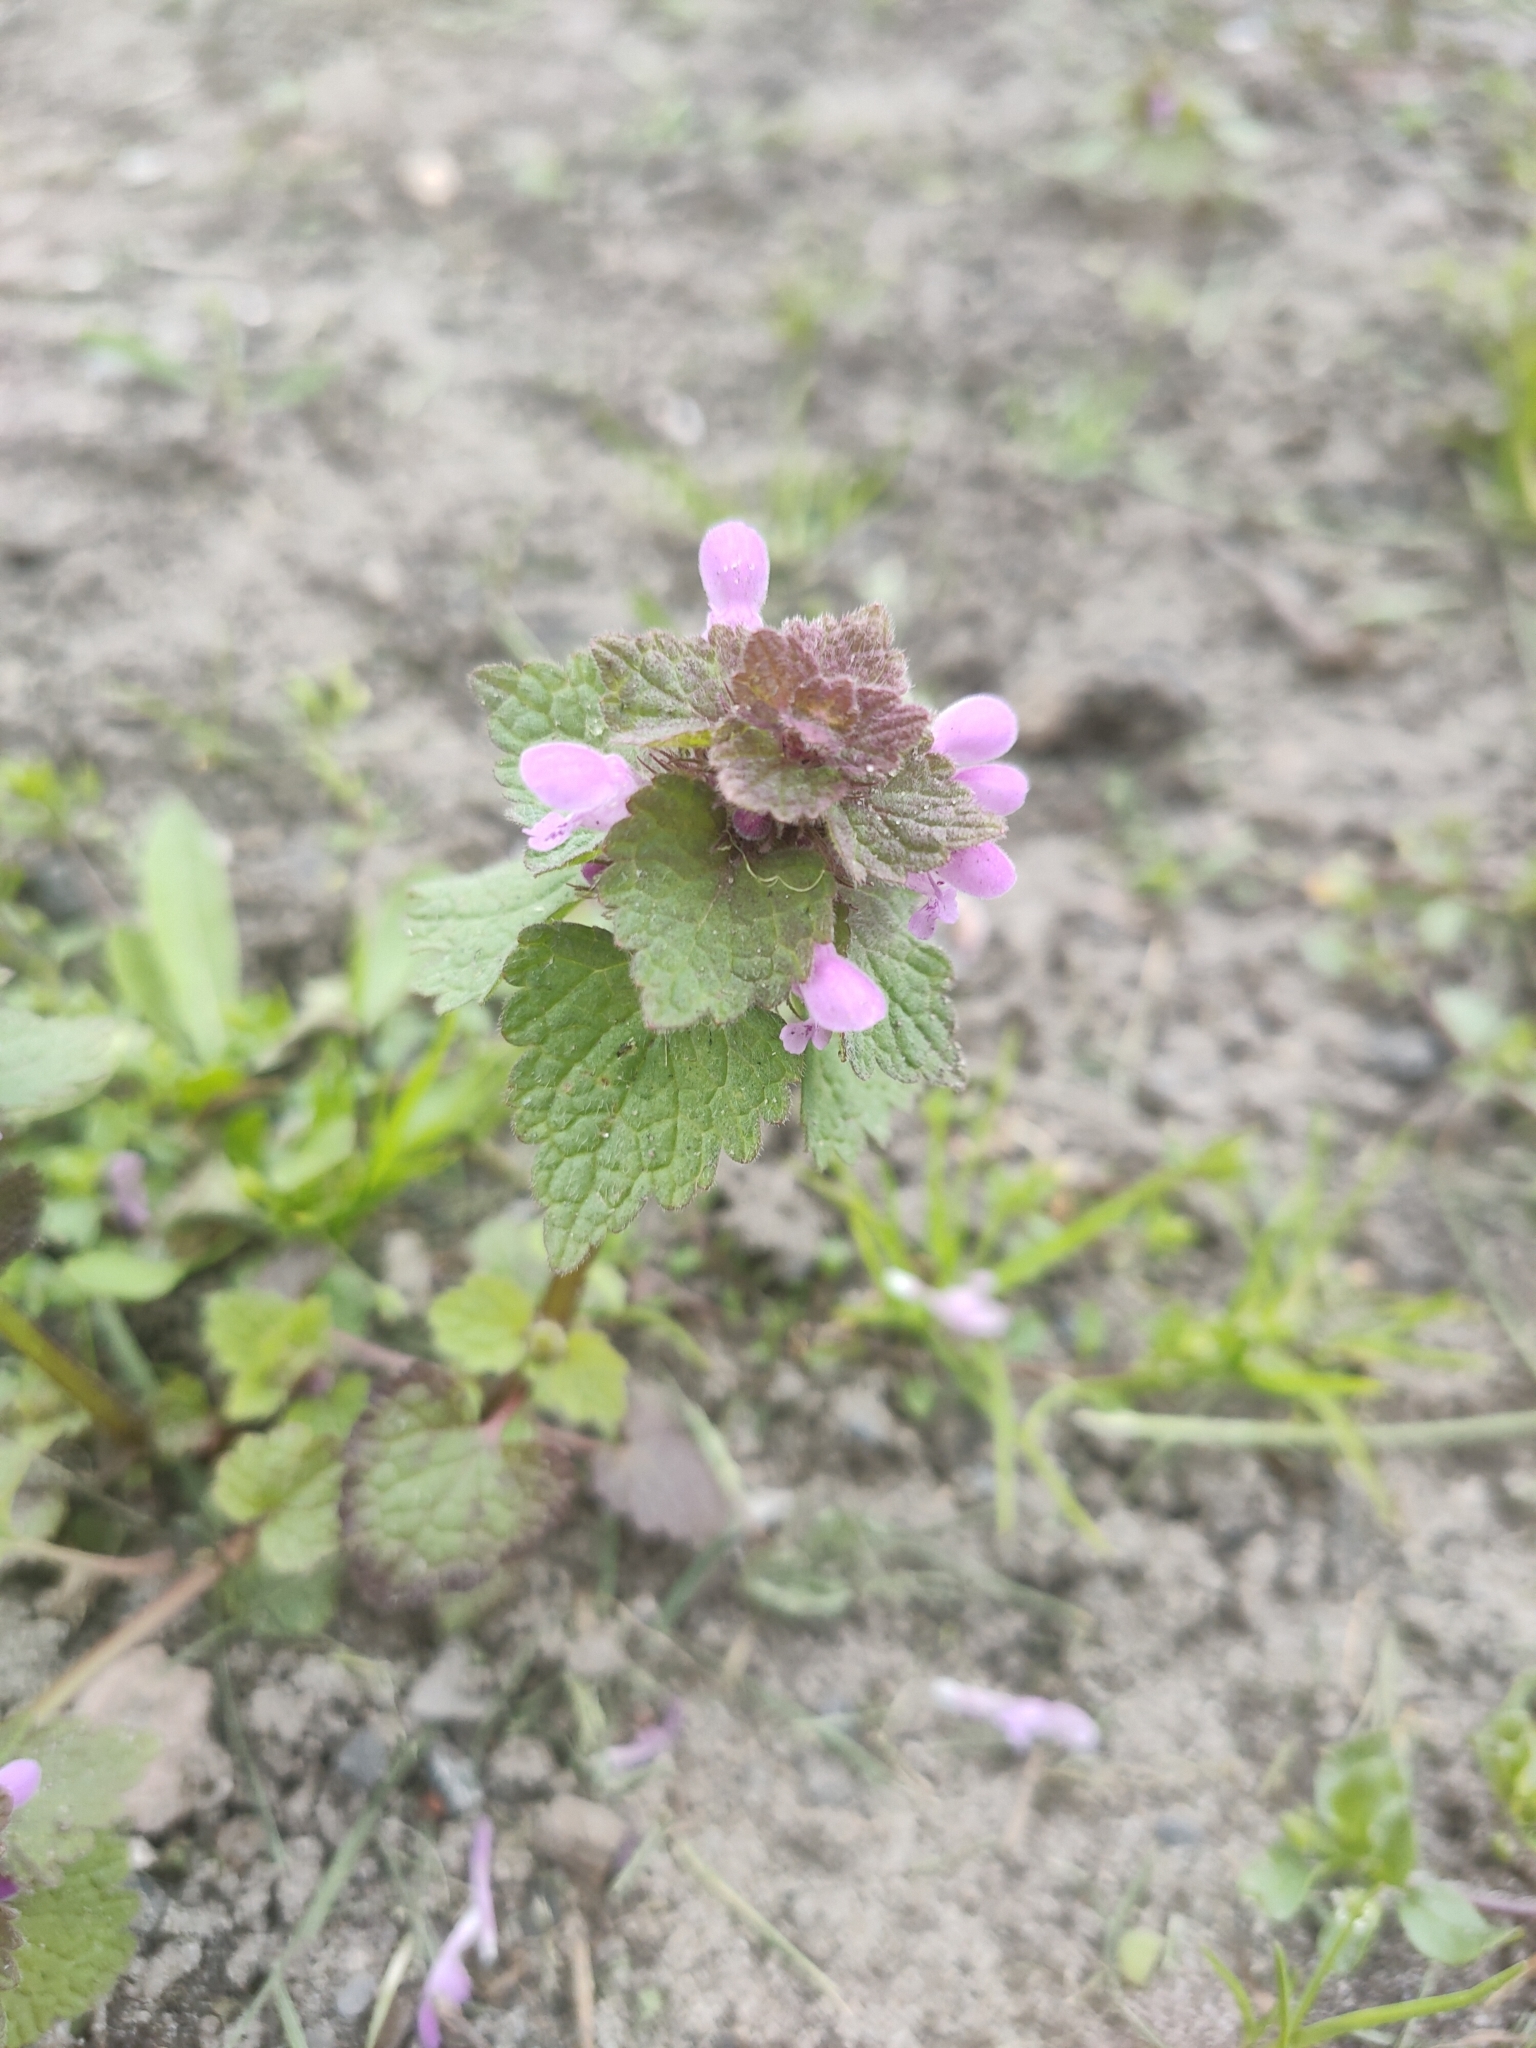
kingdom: Plantae
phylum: Tracheophyta
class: Magnoliopsida
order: Lamiales
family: Lamiaceae
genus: Lamium
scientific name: Lamium purpureum
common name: Red dead-nettle
